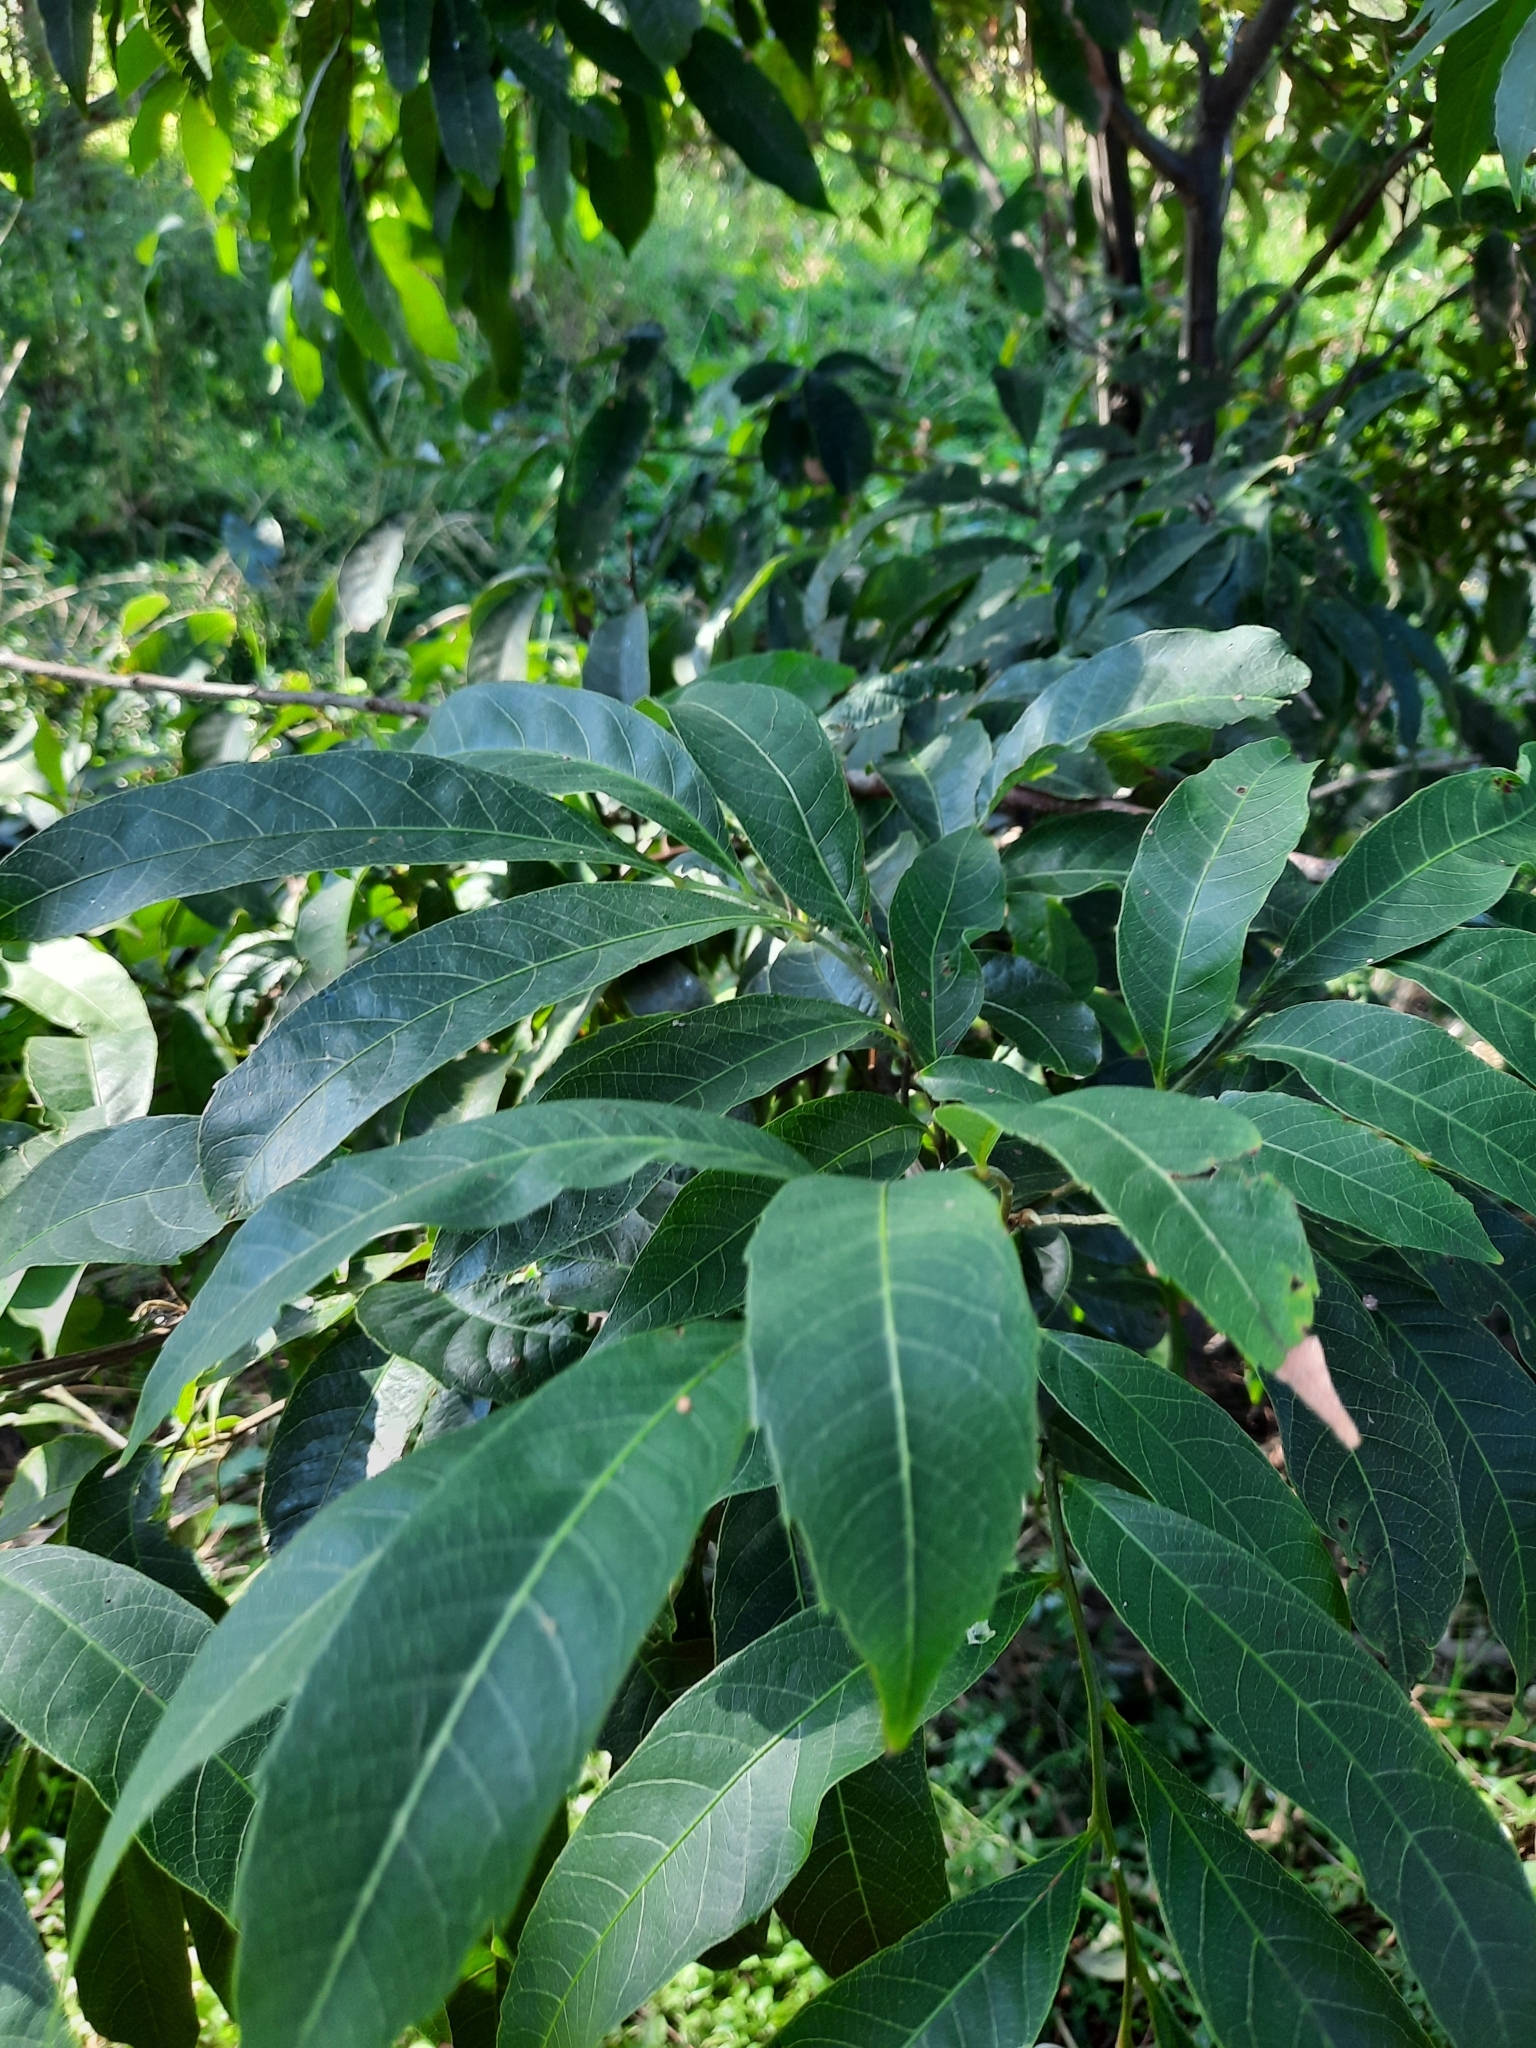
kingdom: Plantae
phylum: Tracheophyta
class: Magnoliopsida
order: Sapindales
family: Sapindaceae
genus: Alectryon
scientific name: Alectryon subcinereus
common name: Wild quince
